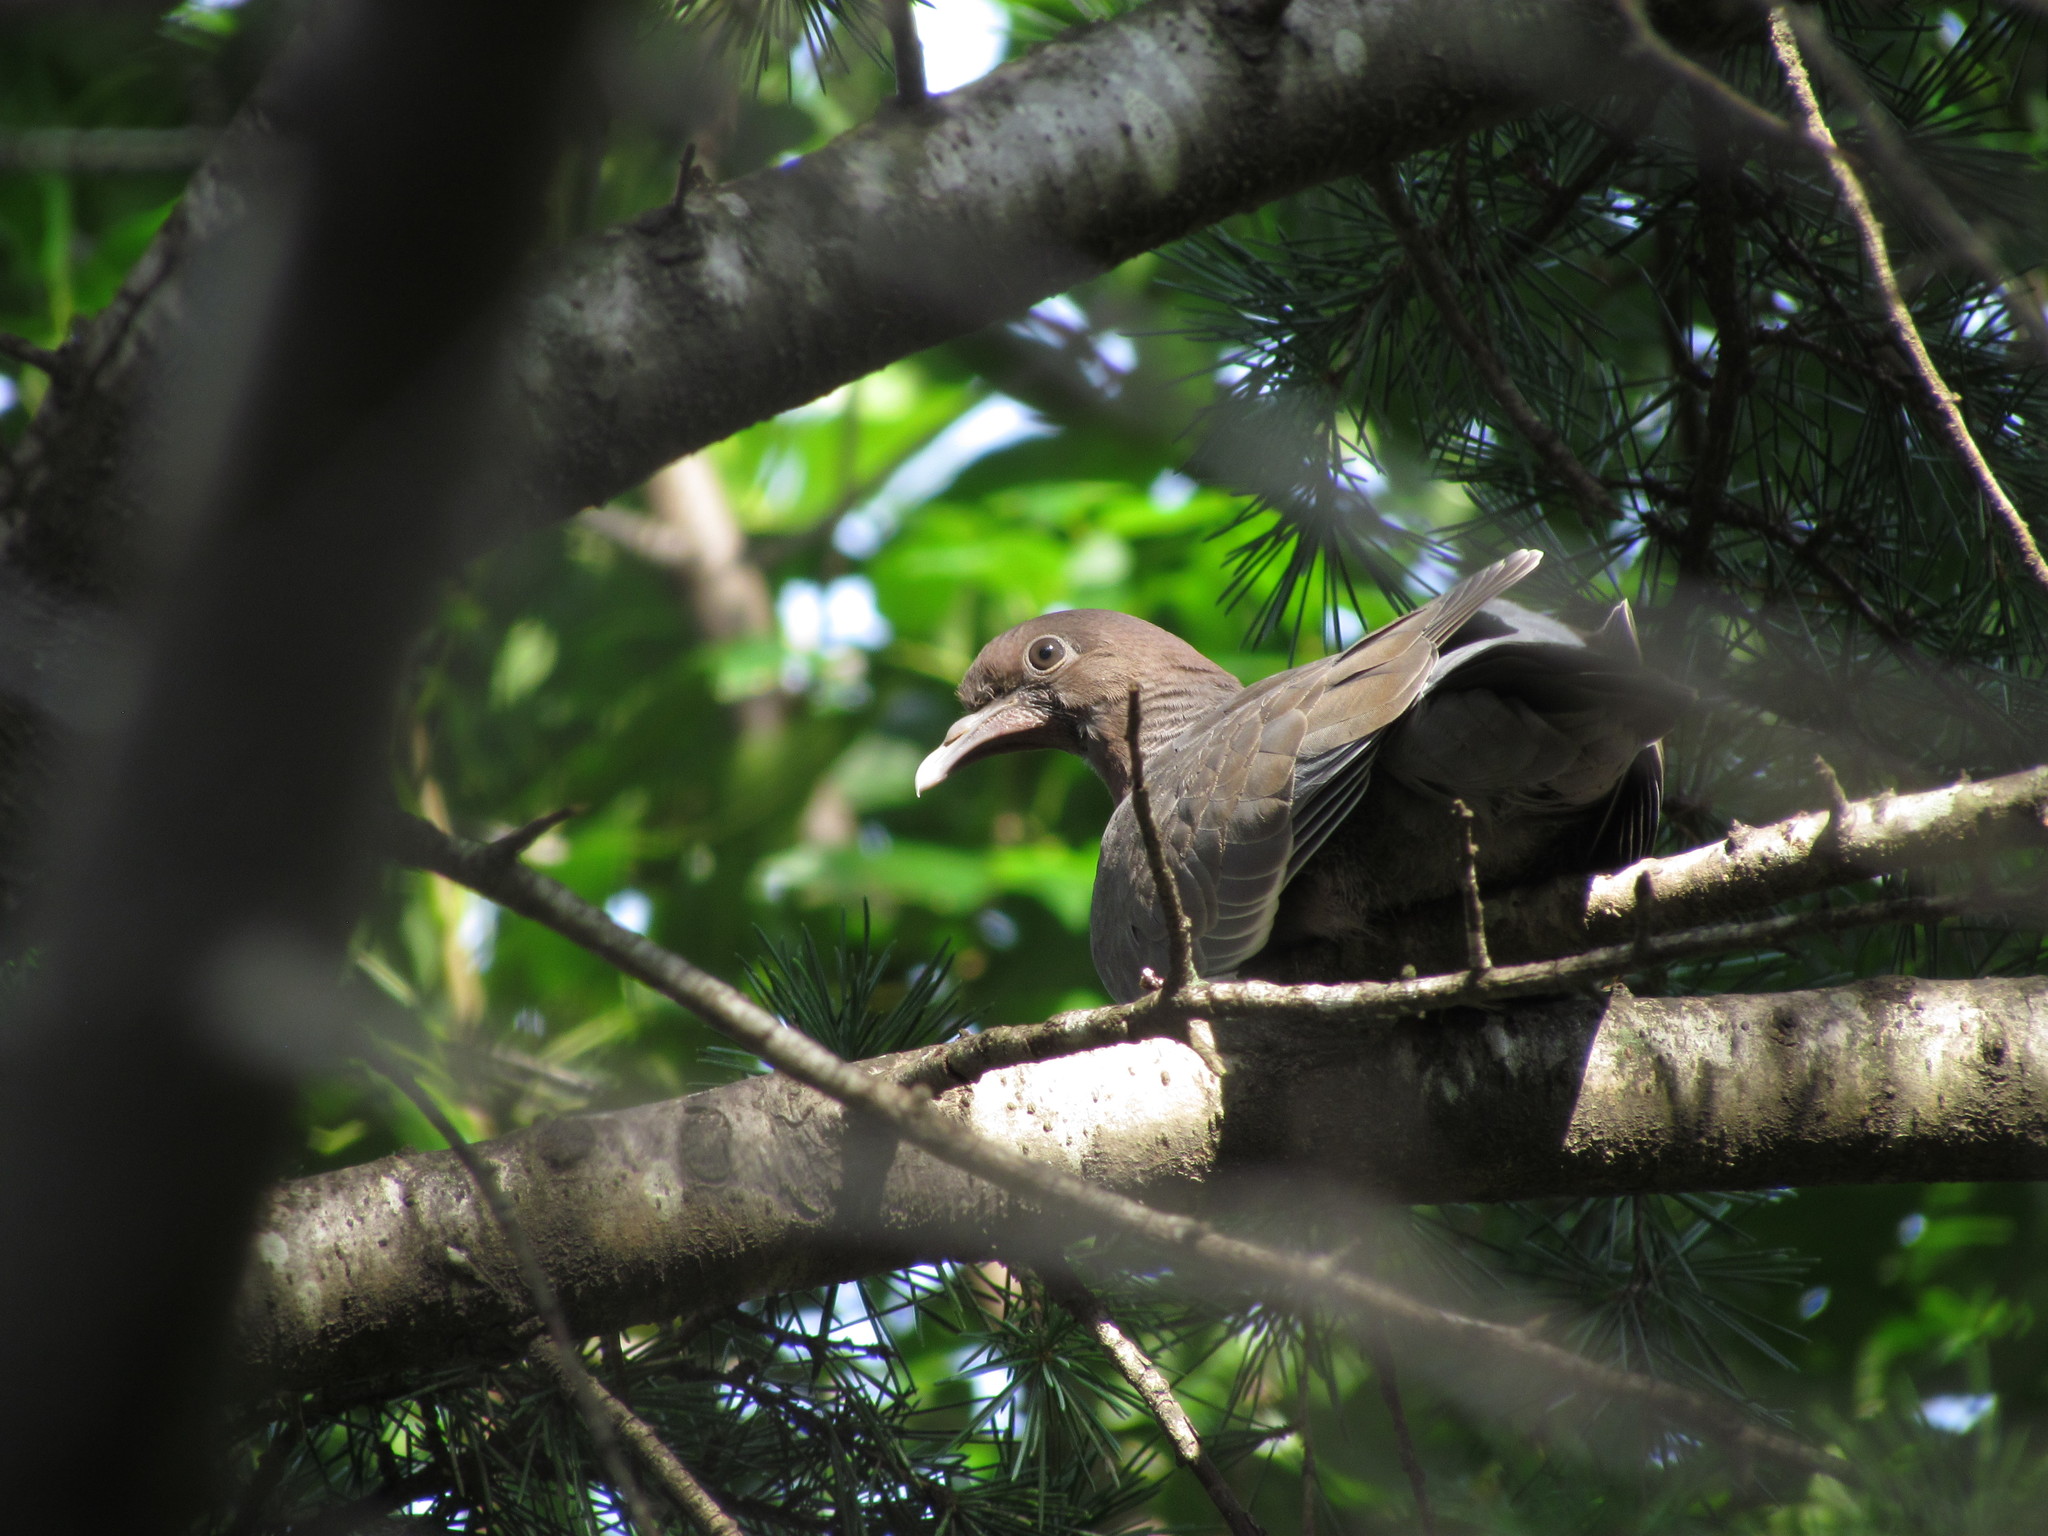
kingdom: Animalia
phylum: Chordata
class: Aves
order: Columbiformes
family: Columbidae
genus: Patagioenas
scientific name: Patagioenas picazuro
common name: Picazuro pigeon
